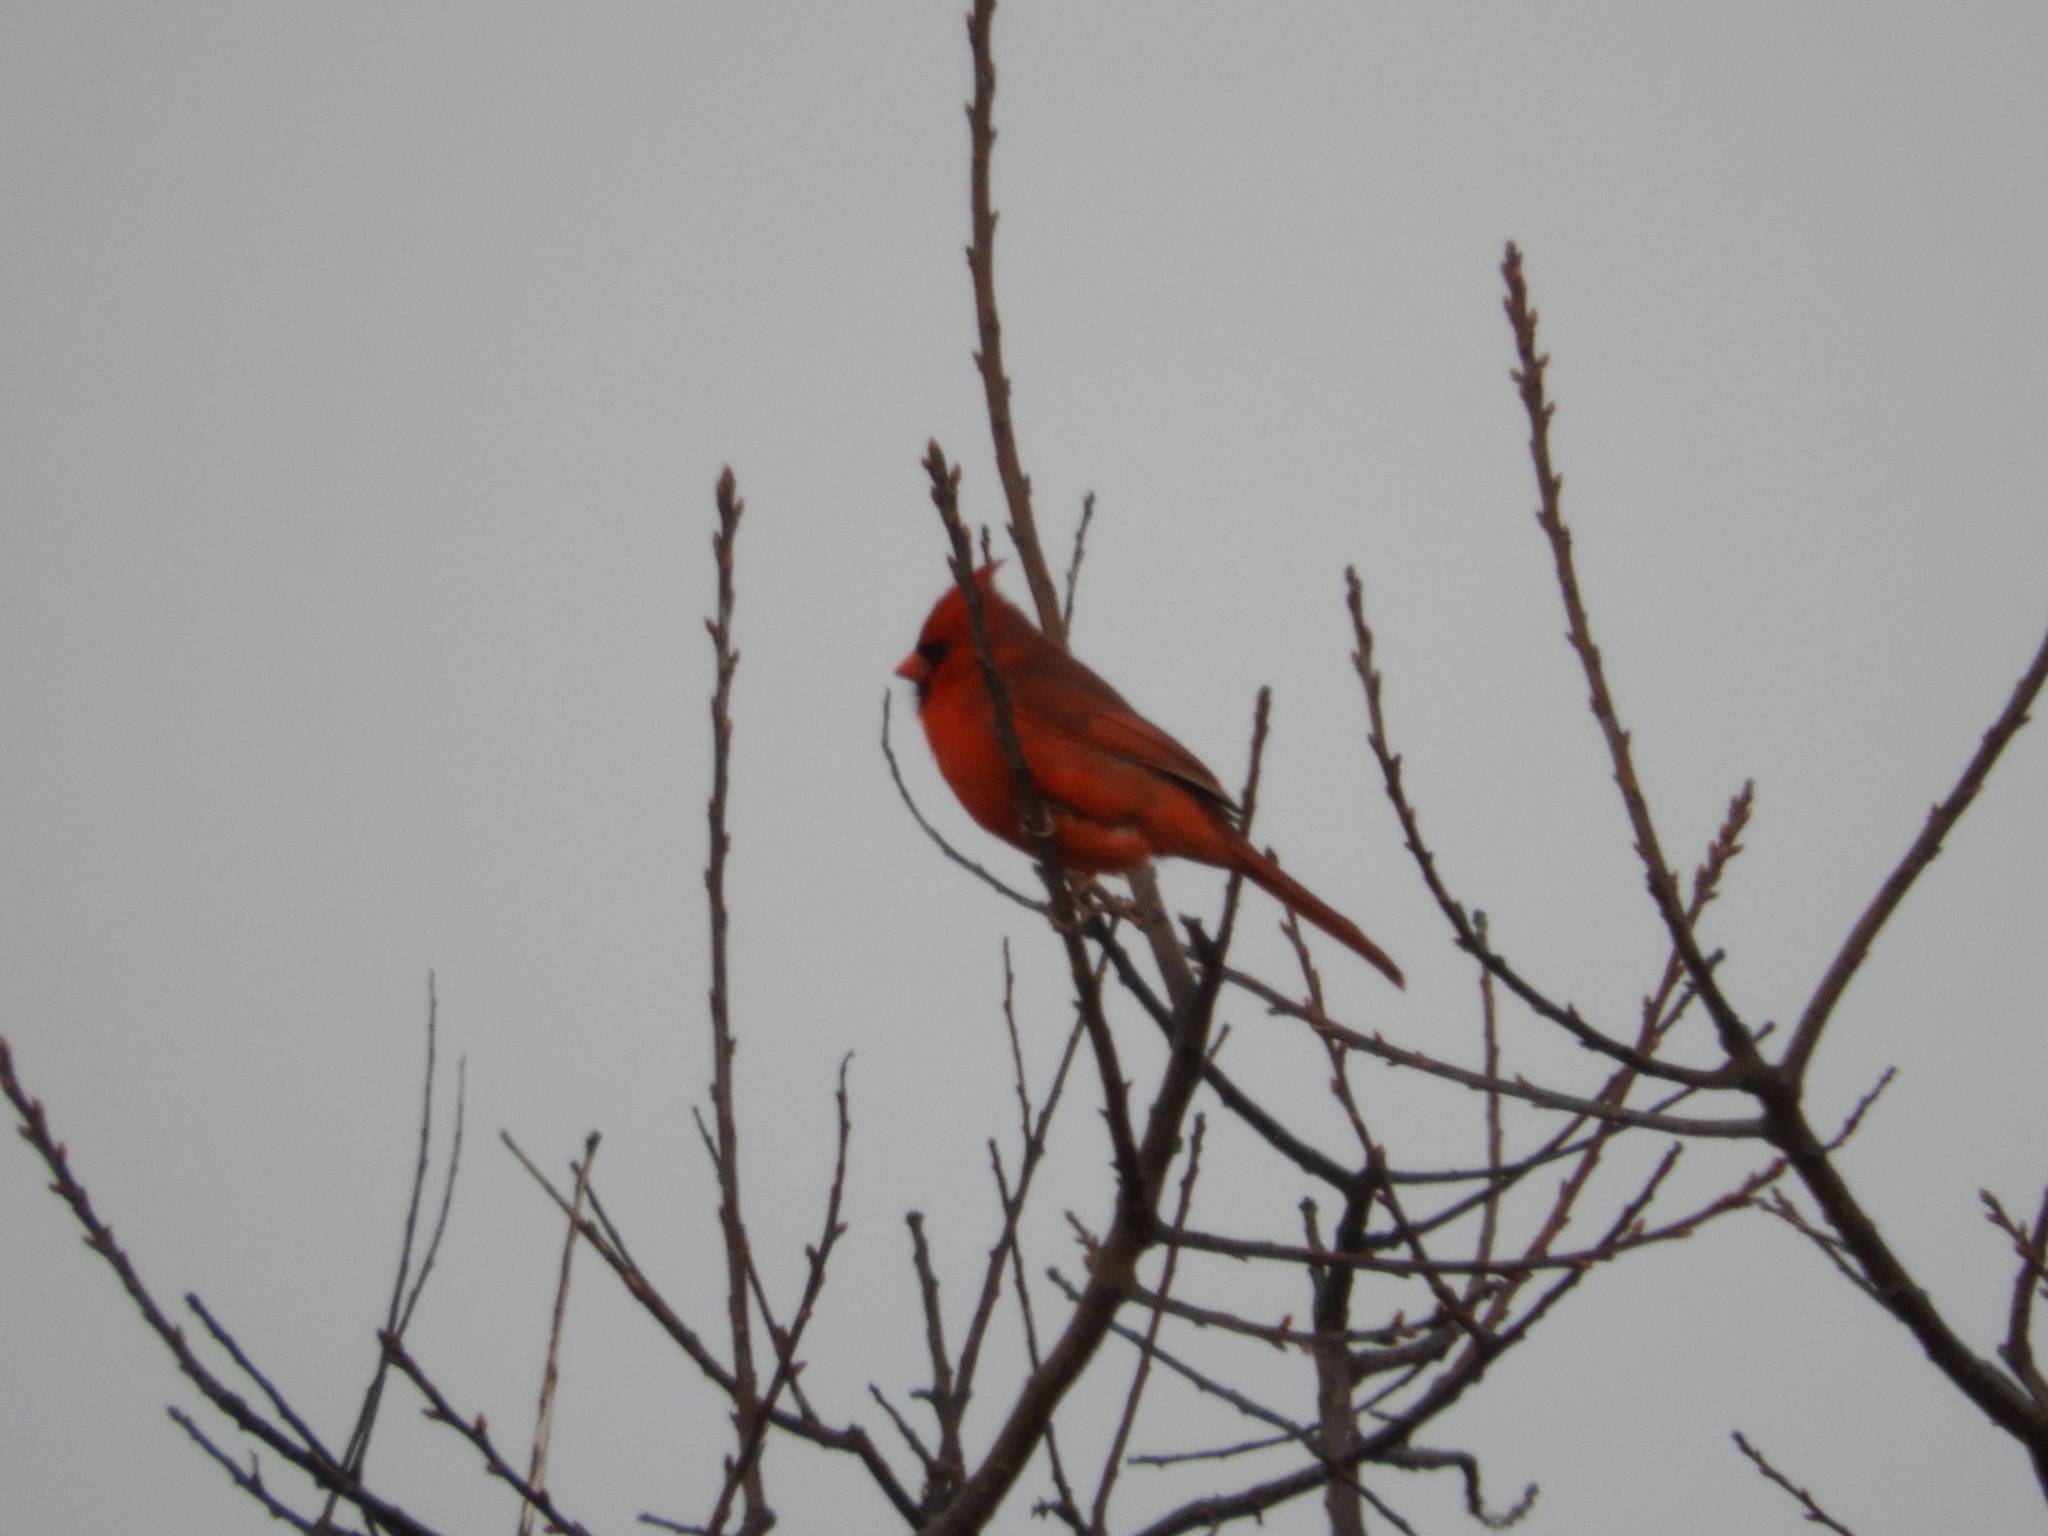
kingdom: Animalia
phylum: Chordata
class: Aves
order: Passeriformes
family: Cardinalidae
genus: Cardinalis
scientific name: Cardinalis cardinalis
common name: Northern cardinal
